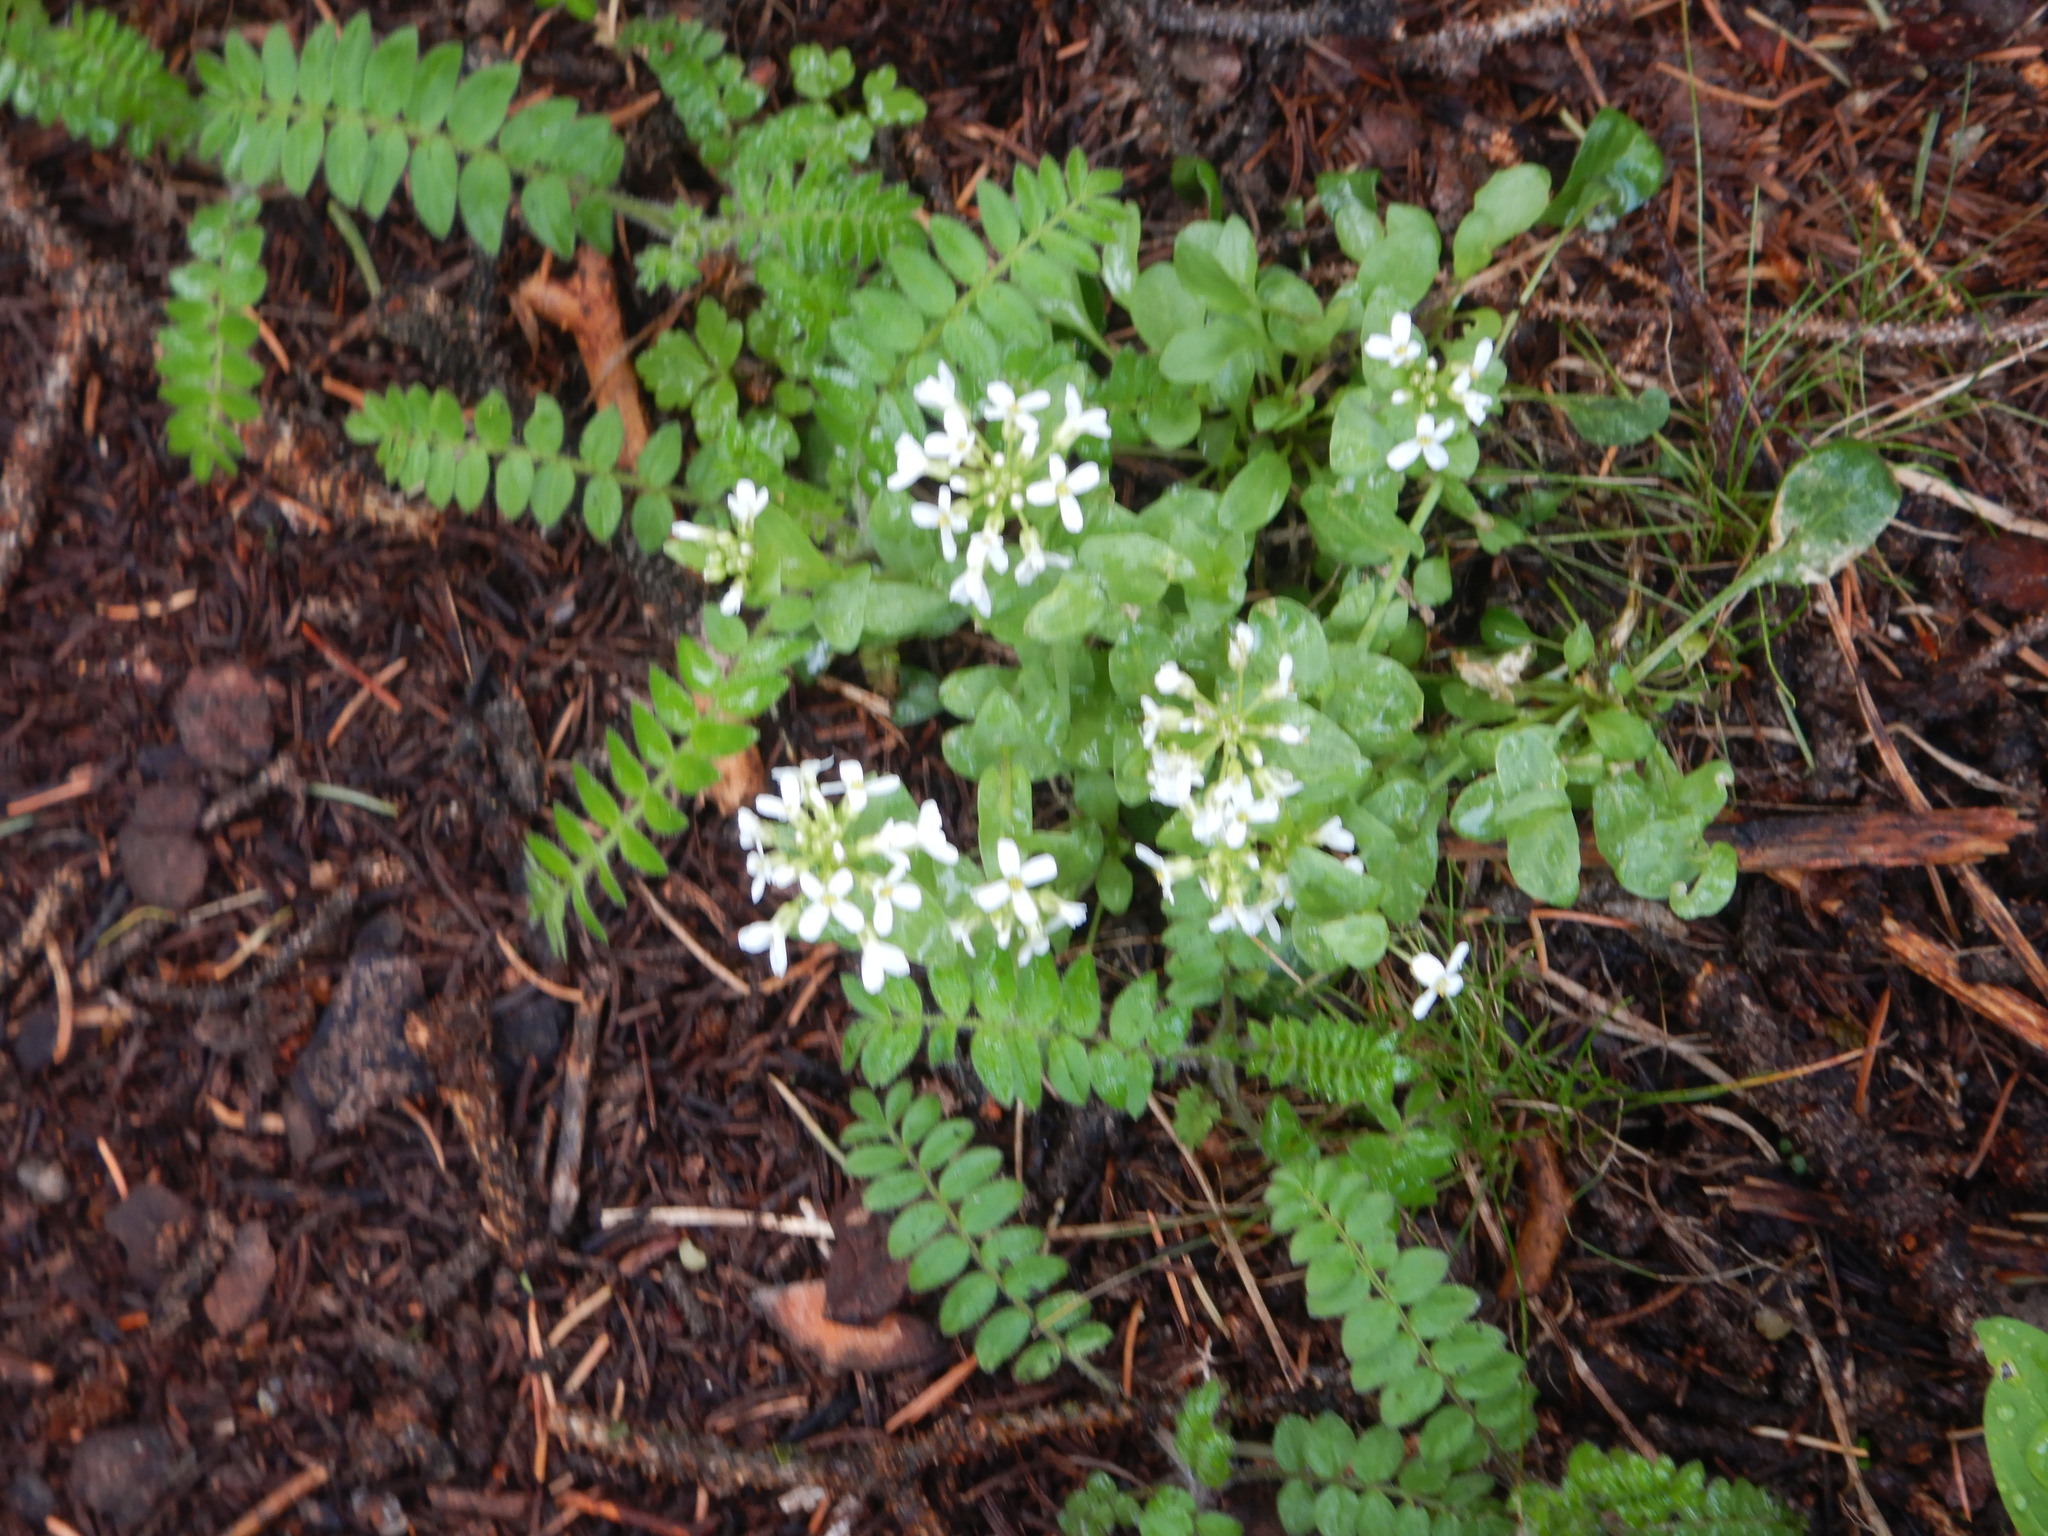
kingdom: Plantae
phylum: Tracheophyta
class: Magnoliopsida
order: Brassicales
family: Brassicaceae
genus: Noccaea
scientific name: Noccaea fendleri
